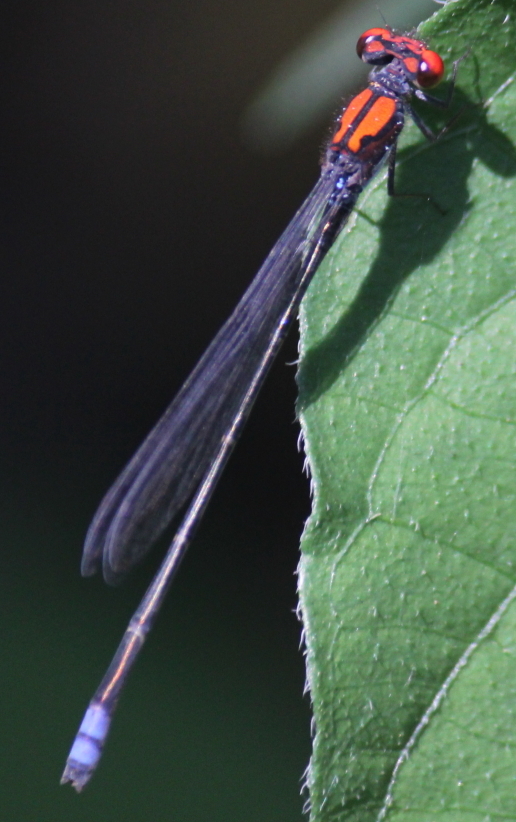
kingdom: Animalia
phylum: Arthropoda
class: Insecta
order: Odonata
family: Coenagrionidae
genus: Pseudagrion
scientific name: Pseudagrion massaicum
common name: Masai sprite
